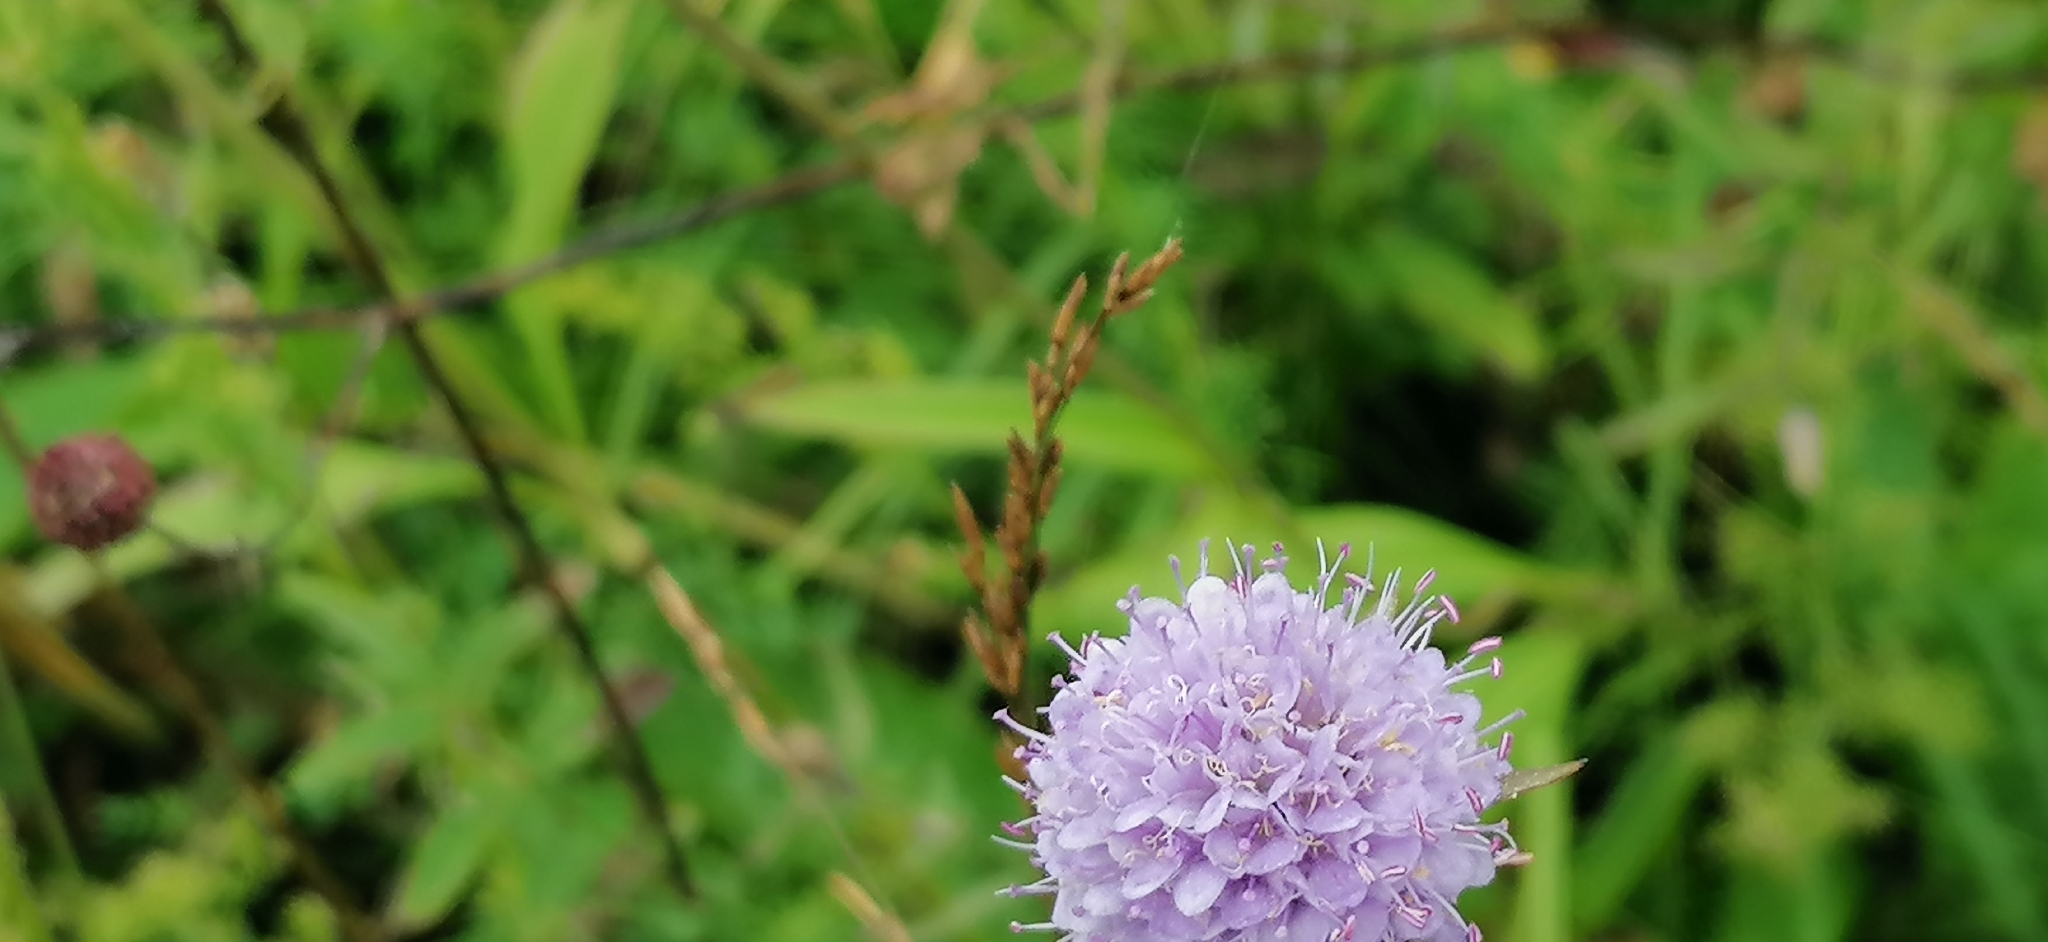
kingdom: Plantae
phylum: Tracheophyta
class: Magnoliopsida
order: Dipsacales
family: Caprifoliaceae
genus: Succisa
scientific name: Succisa pratensis
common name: Devil's-bit
